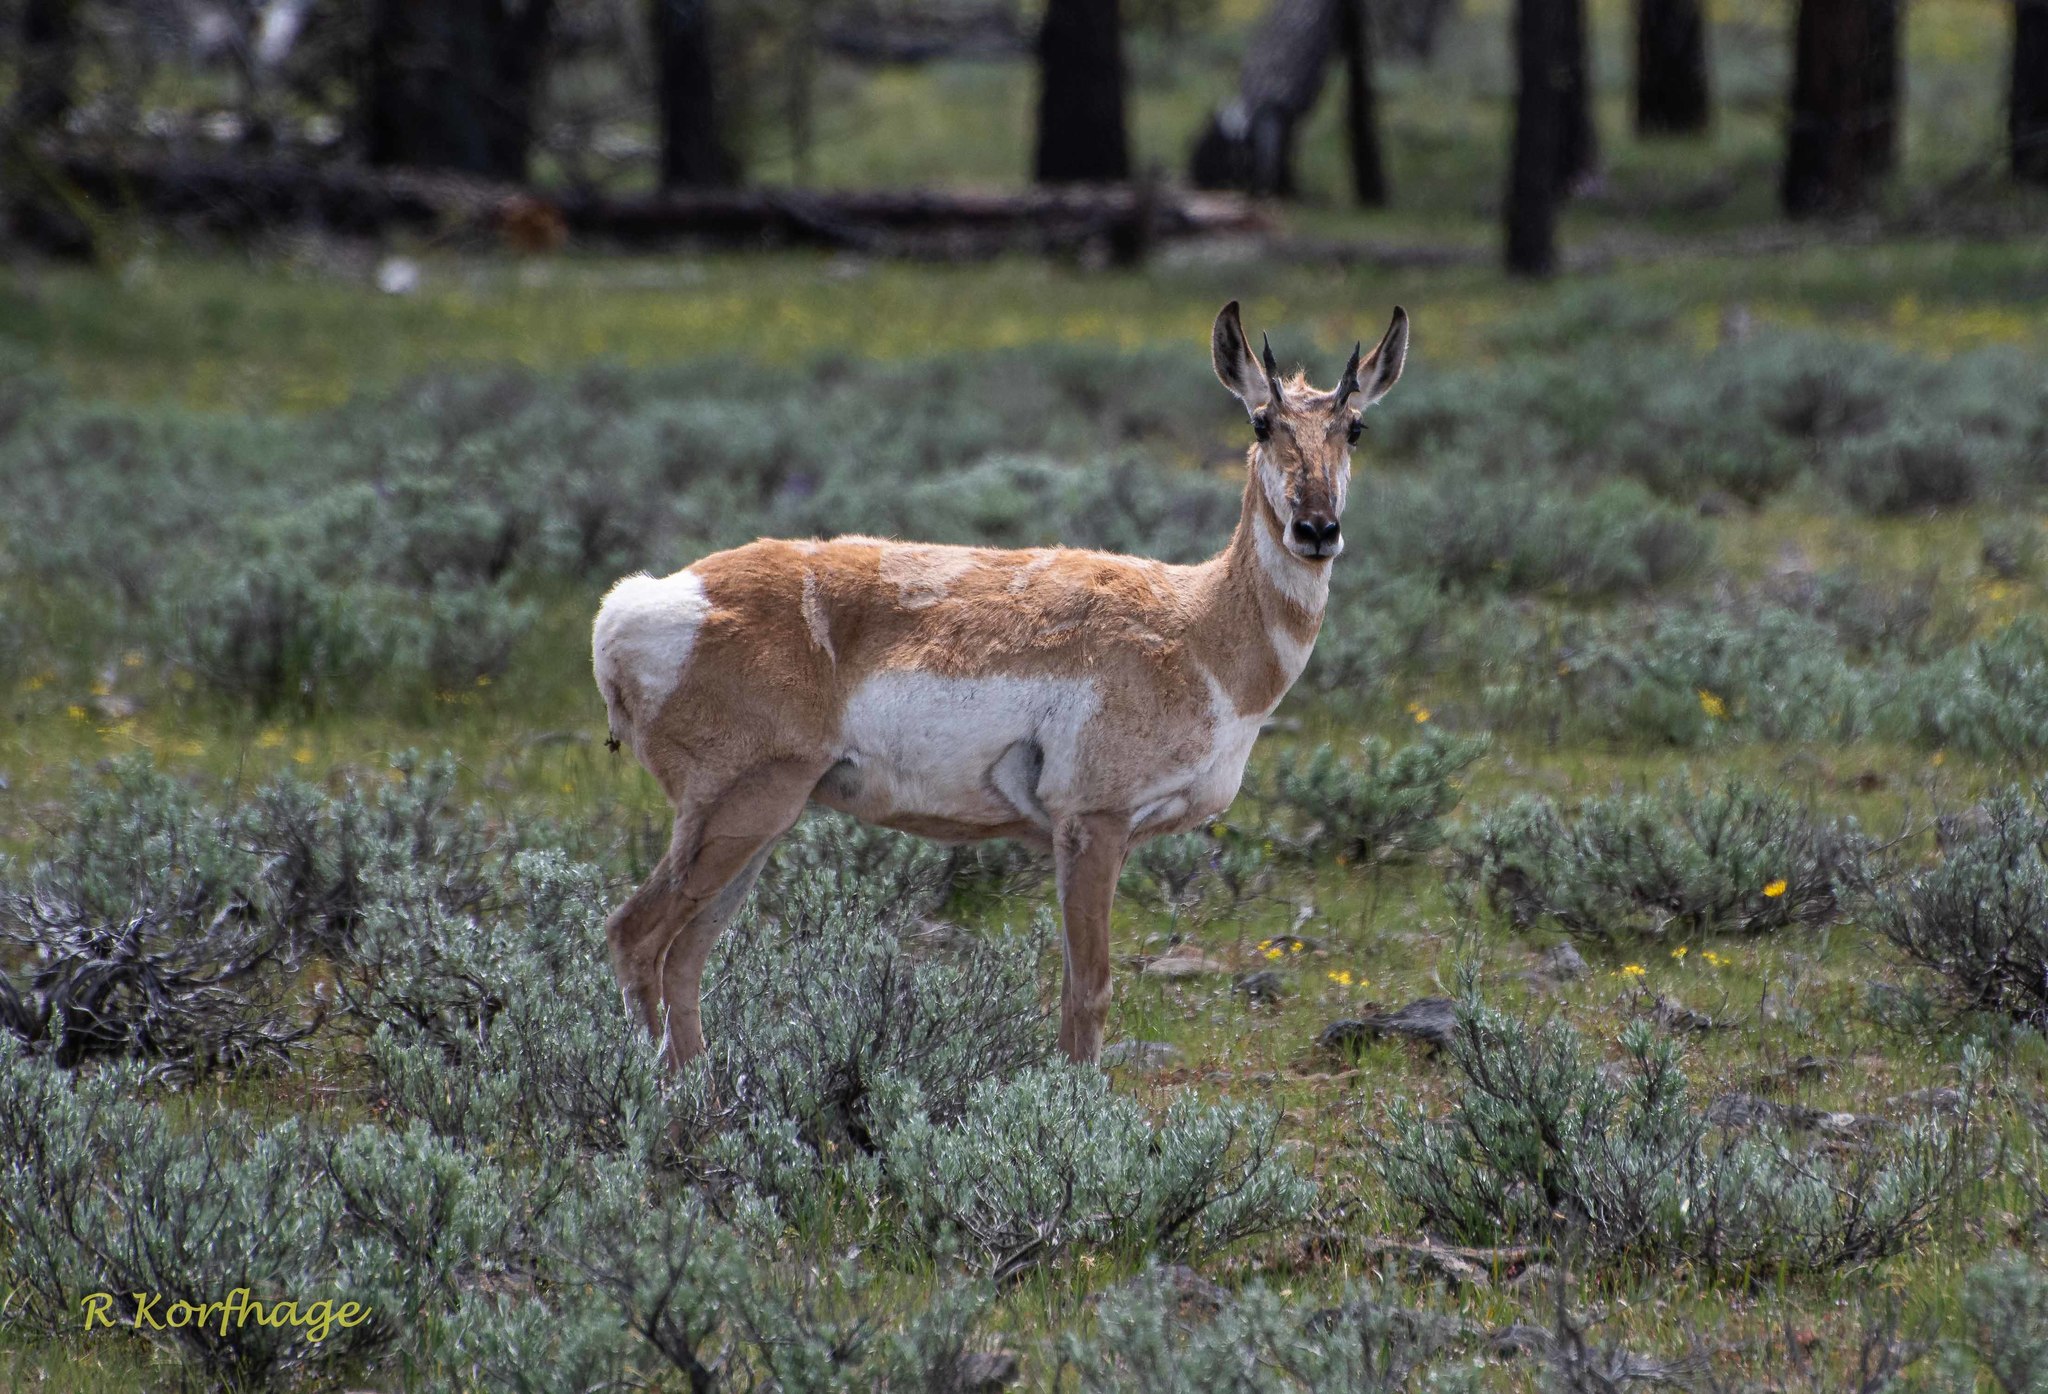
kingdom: Animalia
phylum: Chordata
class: Mammalia
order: Artiodactyla
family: Antilocapridae
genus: Antilocapra
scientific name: Antilocapra americana
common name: Pronghorn
